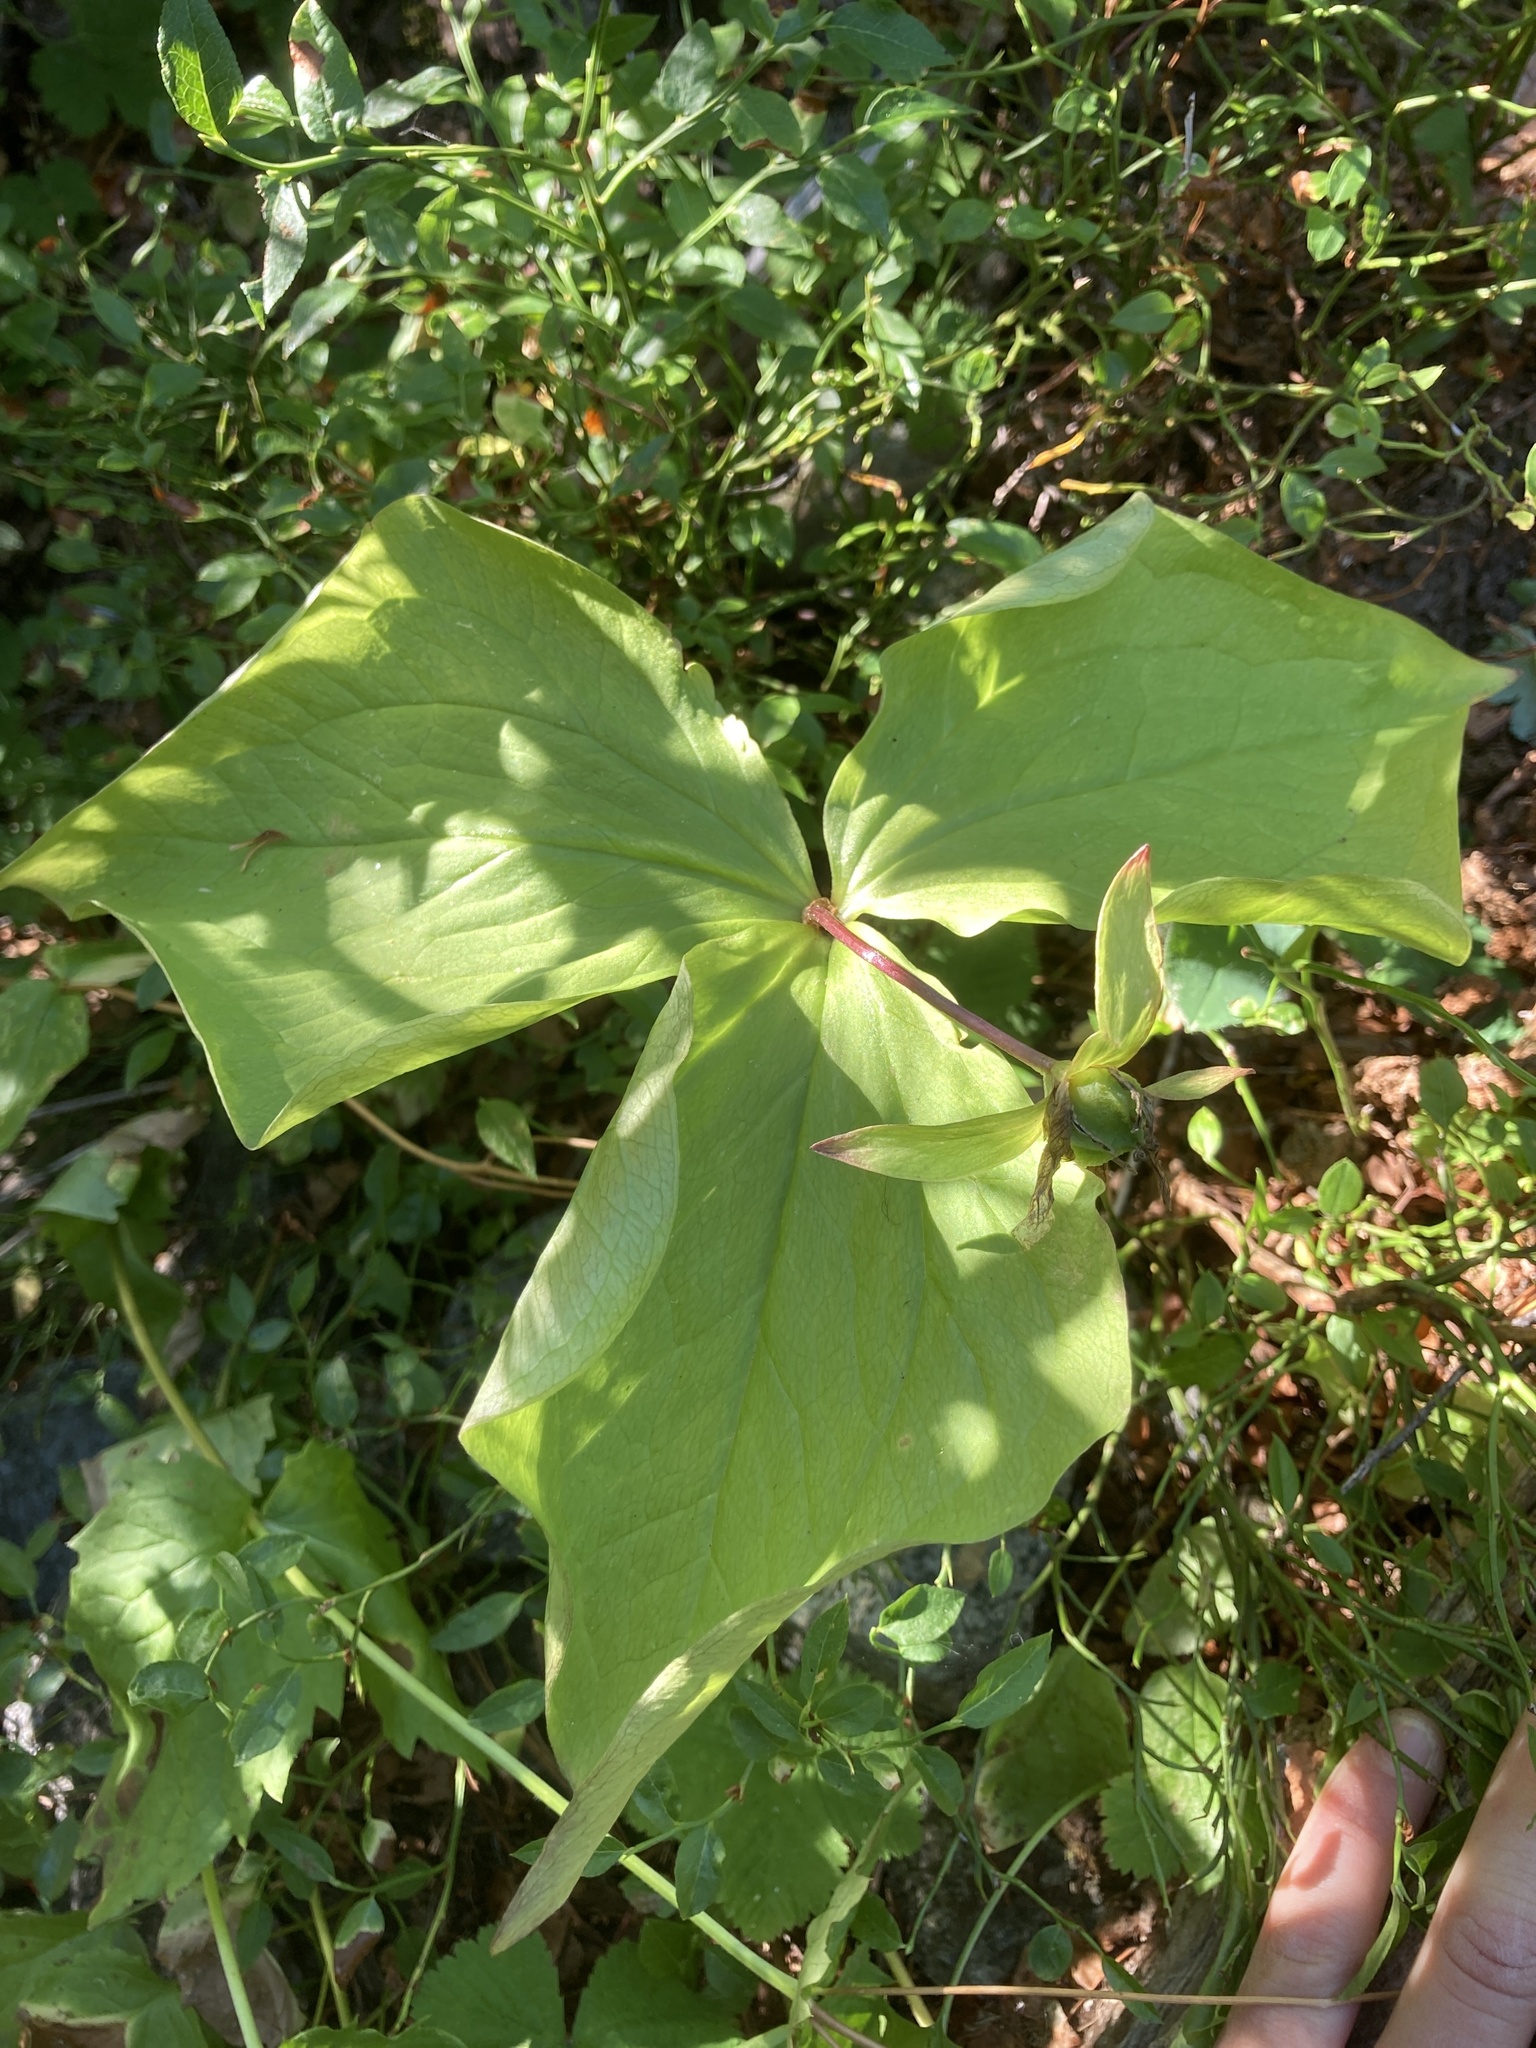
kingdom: Plantae
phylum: Tracheophyta
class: Liliopsida
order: Liliales
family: Melanthiaceae
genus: Trillium
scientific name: Trillium ovatum
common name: Pacific trillium
